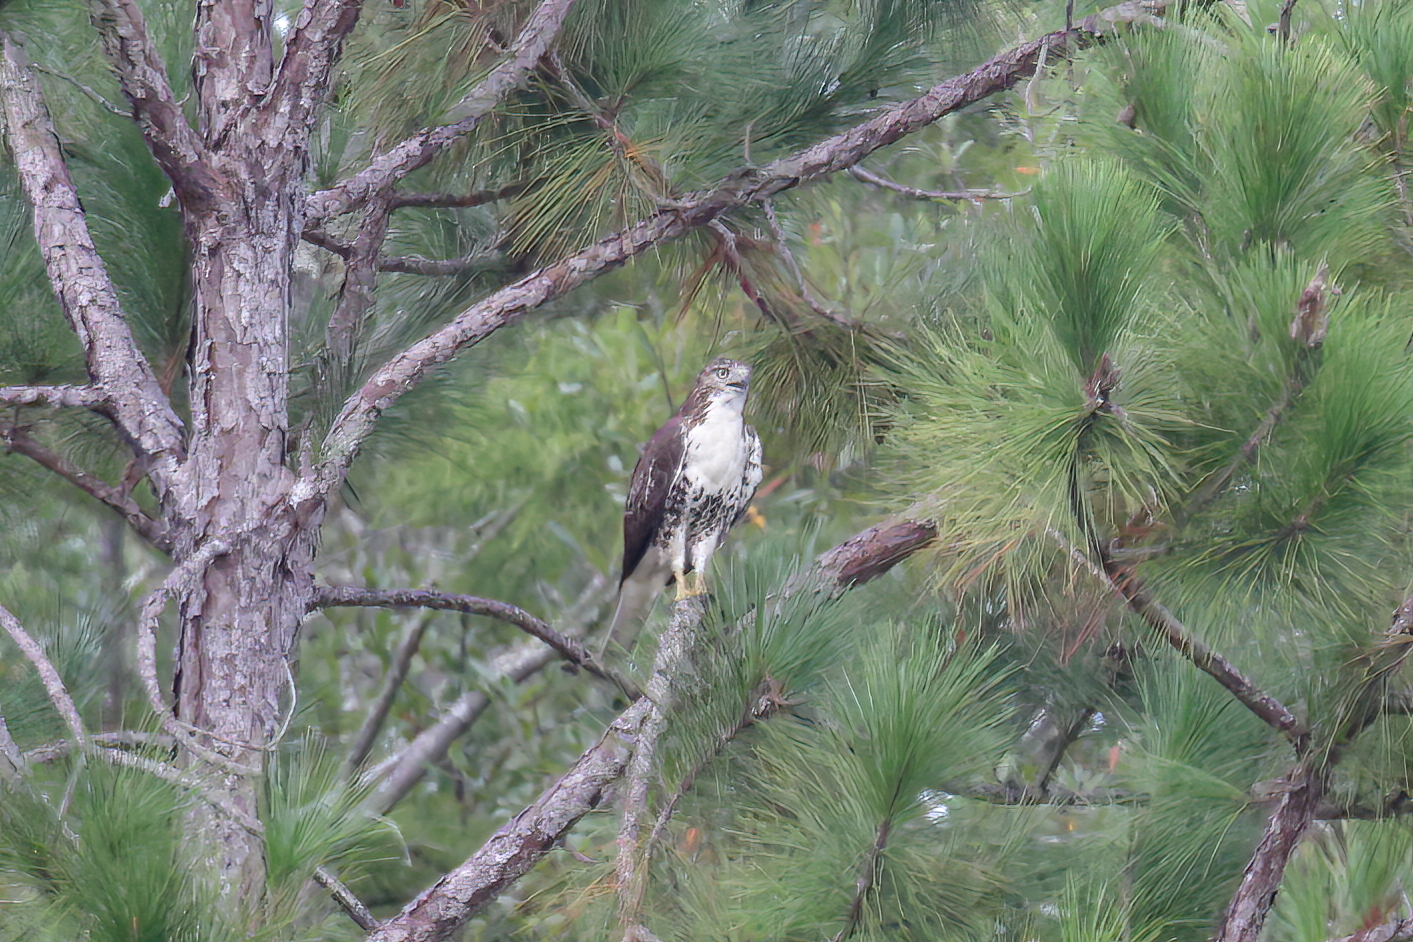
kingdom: Animalia
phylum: Chordata
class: Aves
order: Accipitriformes
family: Accipitridae
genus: Buteo
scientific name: Buteo jamaicensis
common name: Red-tailed hawk
